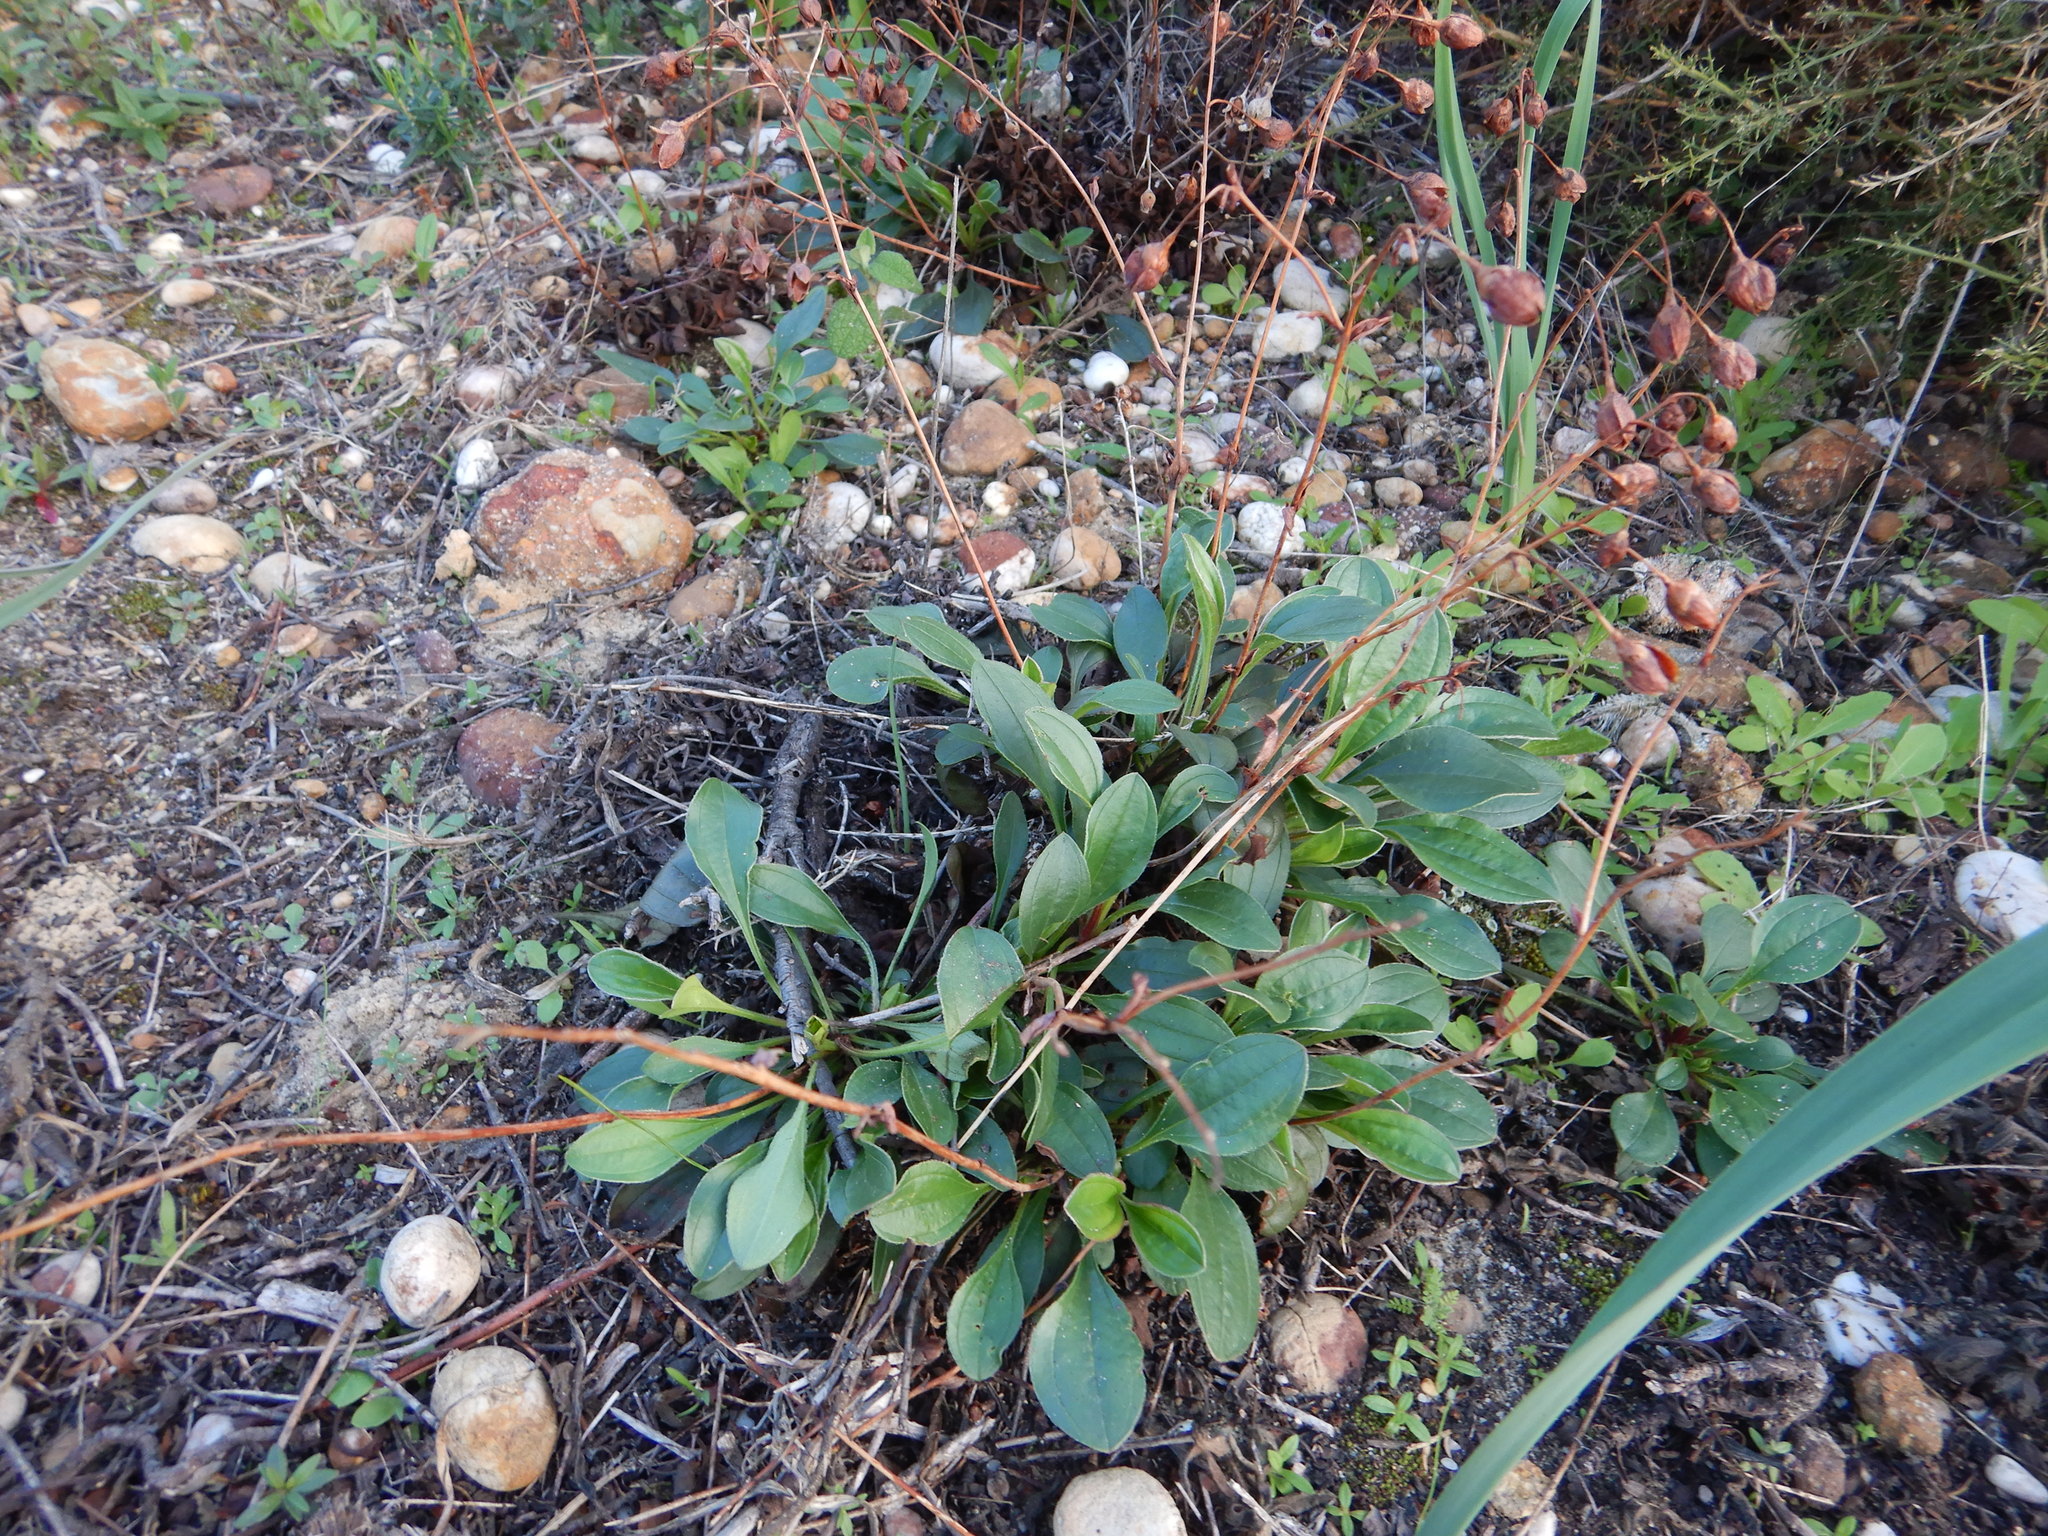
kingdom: Plantae
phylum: Tracheophyta
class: Magnoliopsida
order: Malvales
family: Cistaceae
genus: Tuberaria
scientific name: Tuberaria globulariifolia
